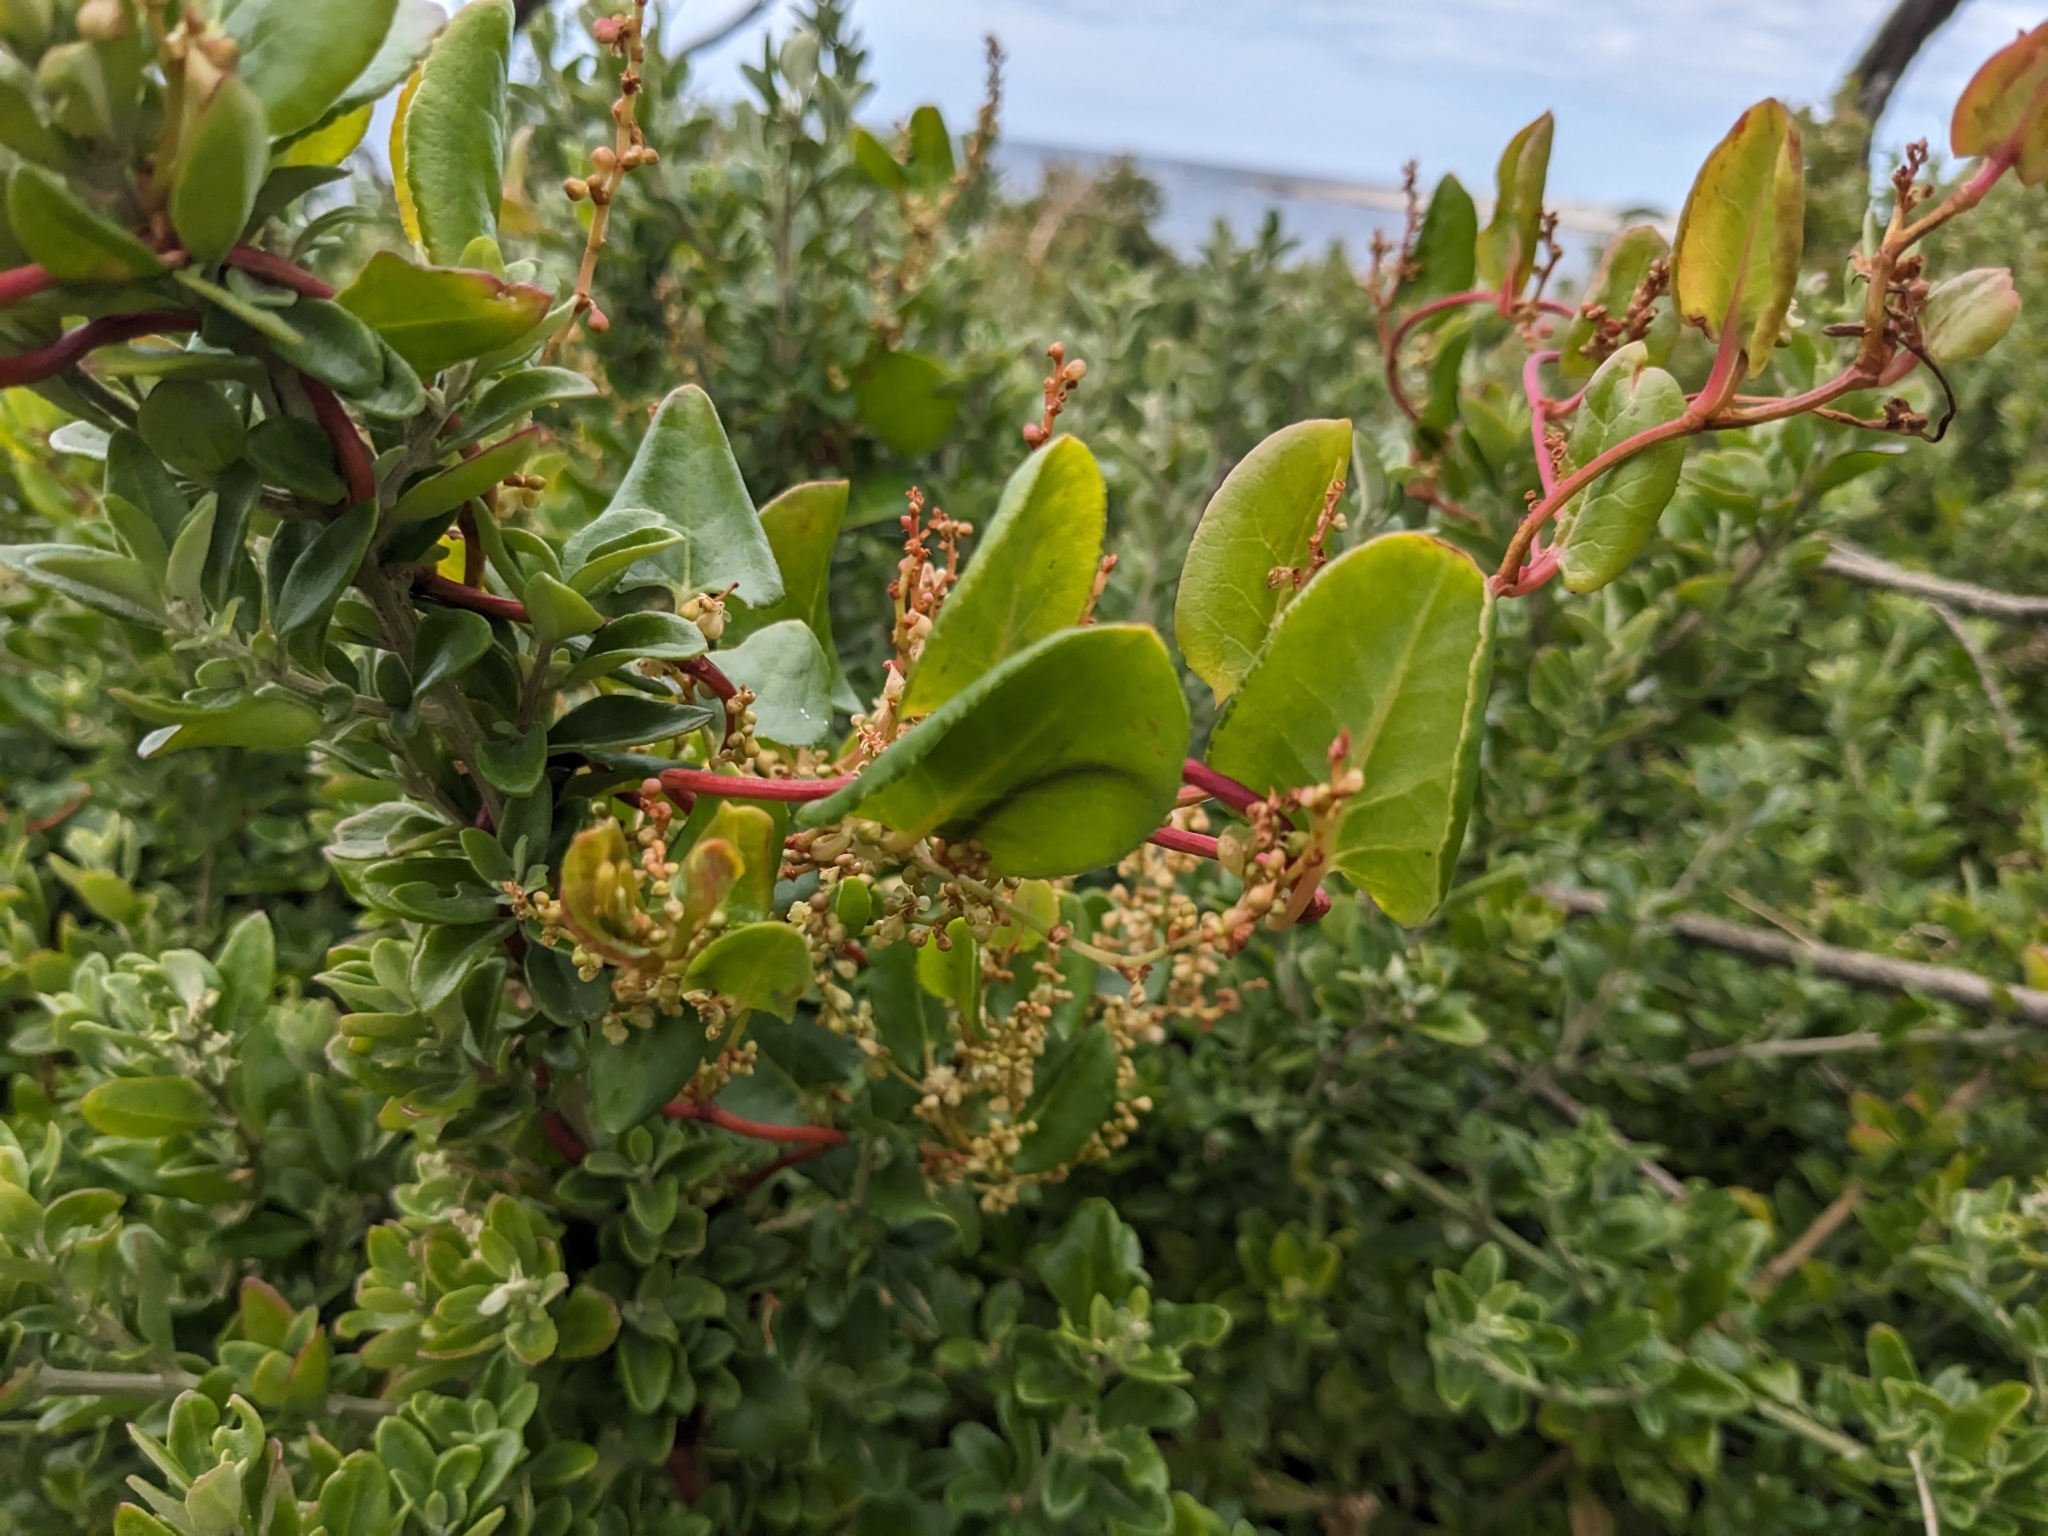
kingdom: Plantae
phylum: Tracheophyta
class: Magnoliopsida
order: Caryophyllales
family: Polygonaceae
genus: Muehlenbeckia
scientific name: Muehlenbeckia adpressa
